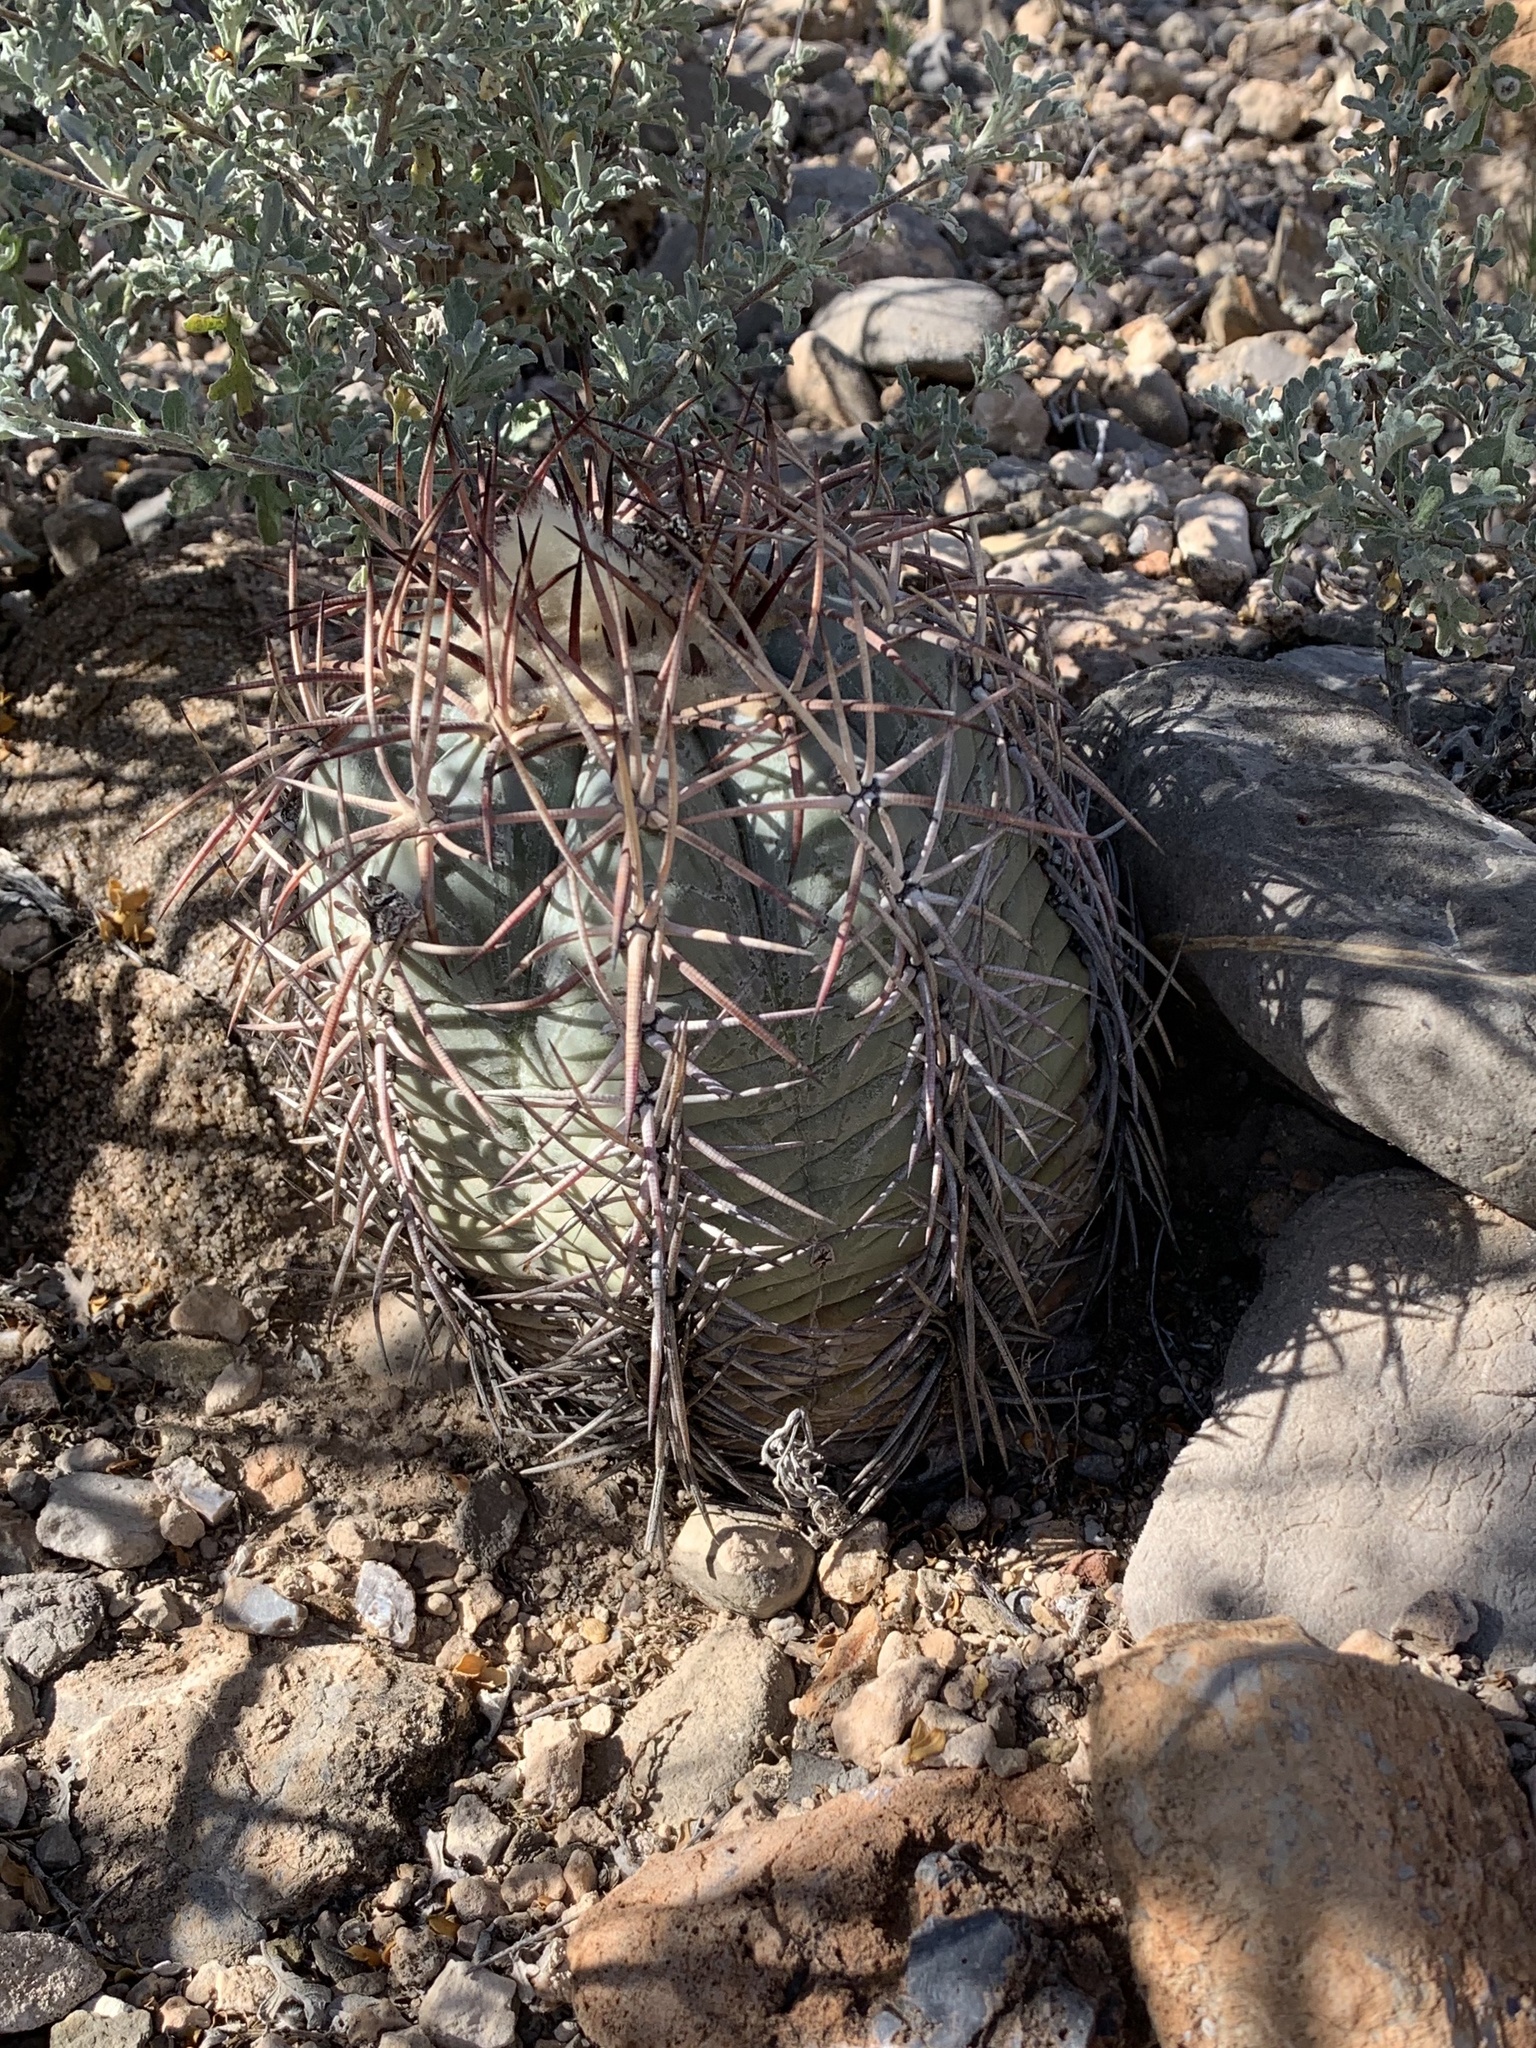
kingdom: Plantae
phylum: Tracheophyta
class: Magnoliopsida
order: Caryophyllales
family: Cactaceae
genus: Echinocactus
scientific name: Echinocactus horizonthalonius
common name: Devilshead
